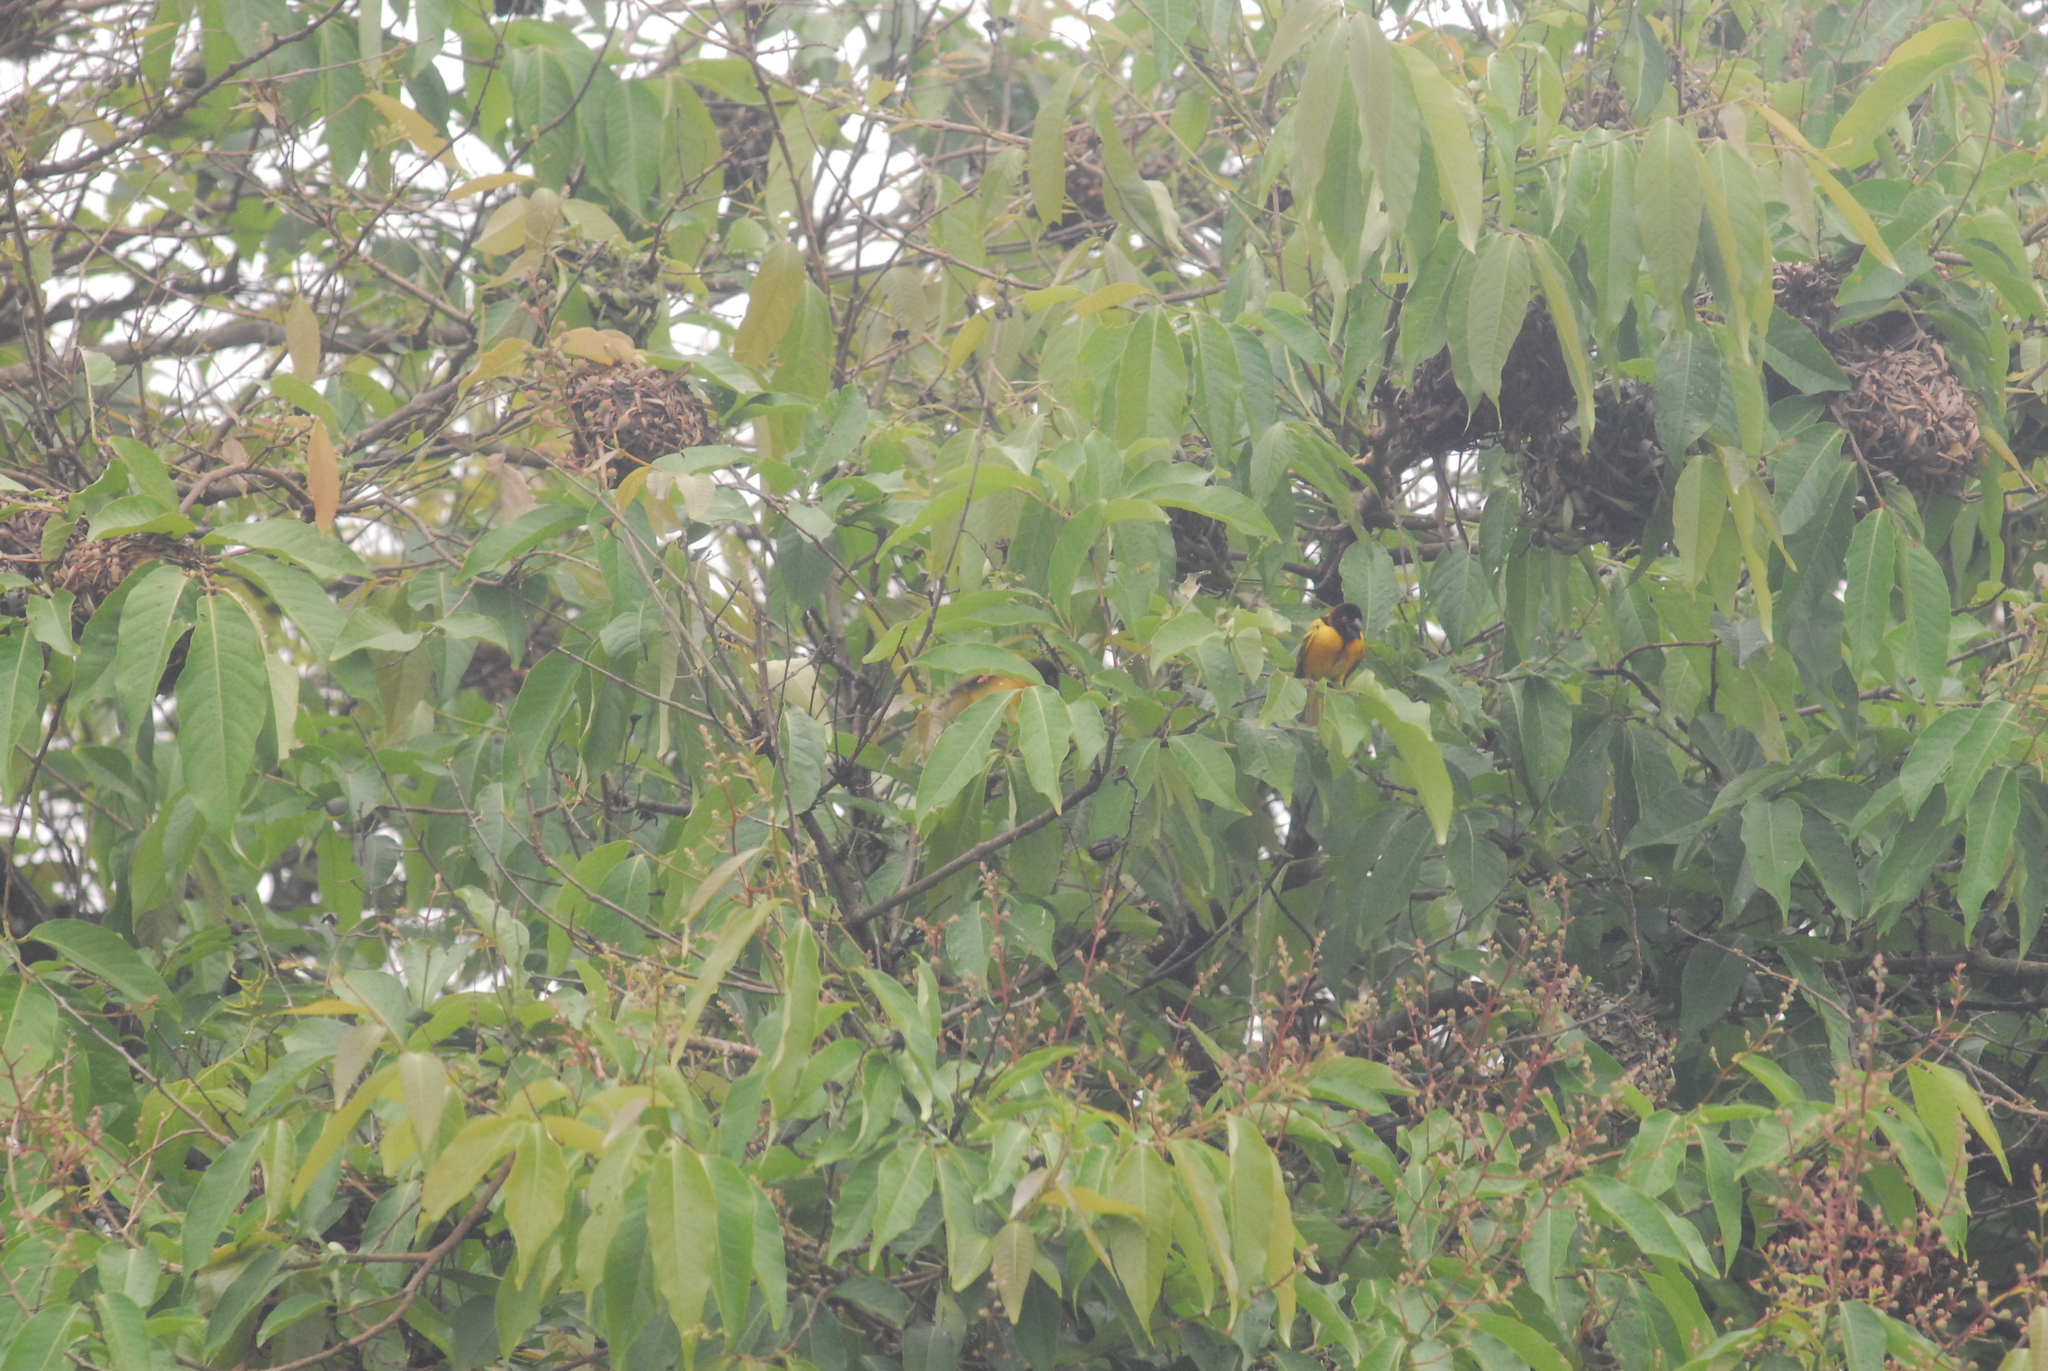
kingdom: Animalia
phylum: Chordata
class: Aves
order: Passeriformes
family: Ploceidae
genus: Ploceus
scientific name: Ploceus cucullatus
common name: Village weaver
